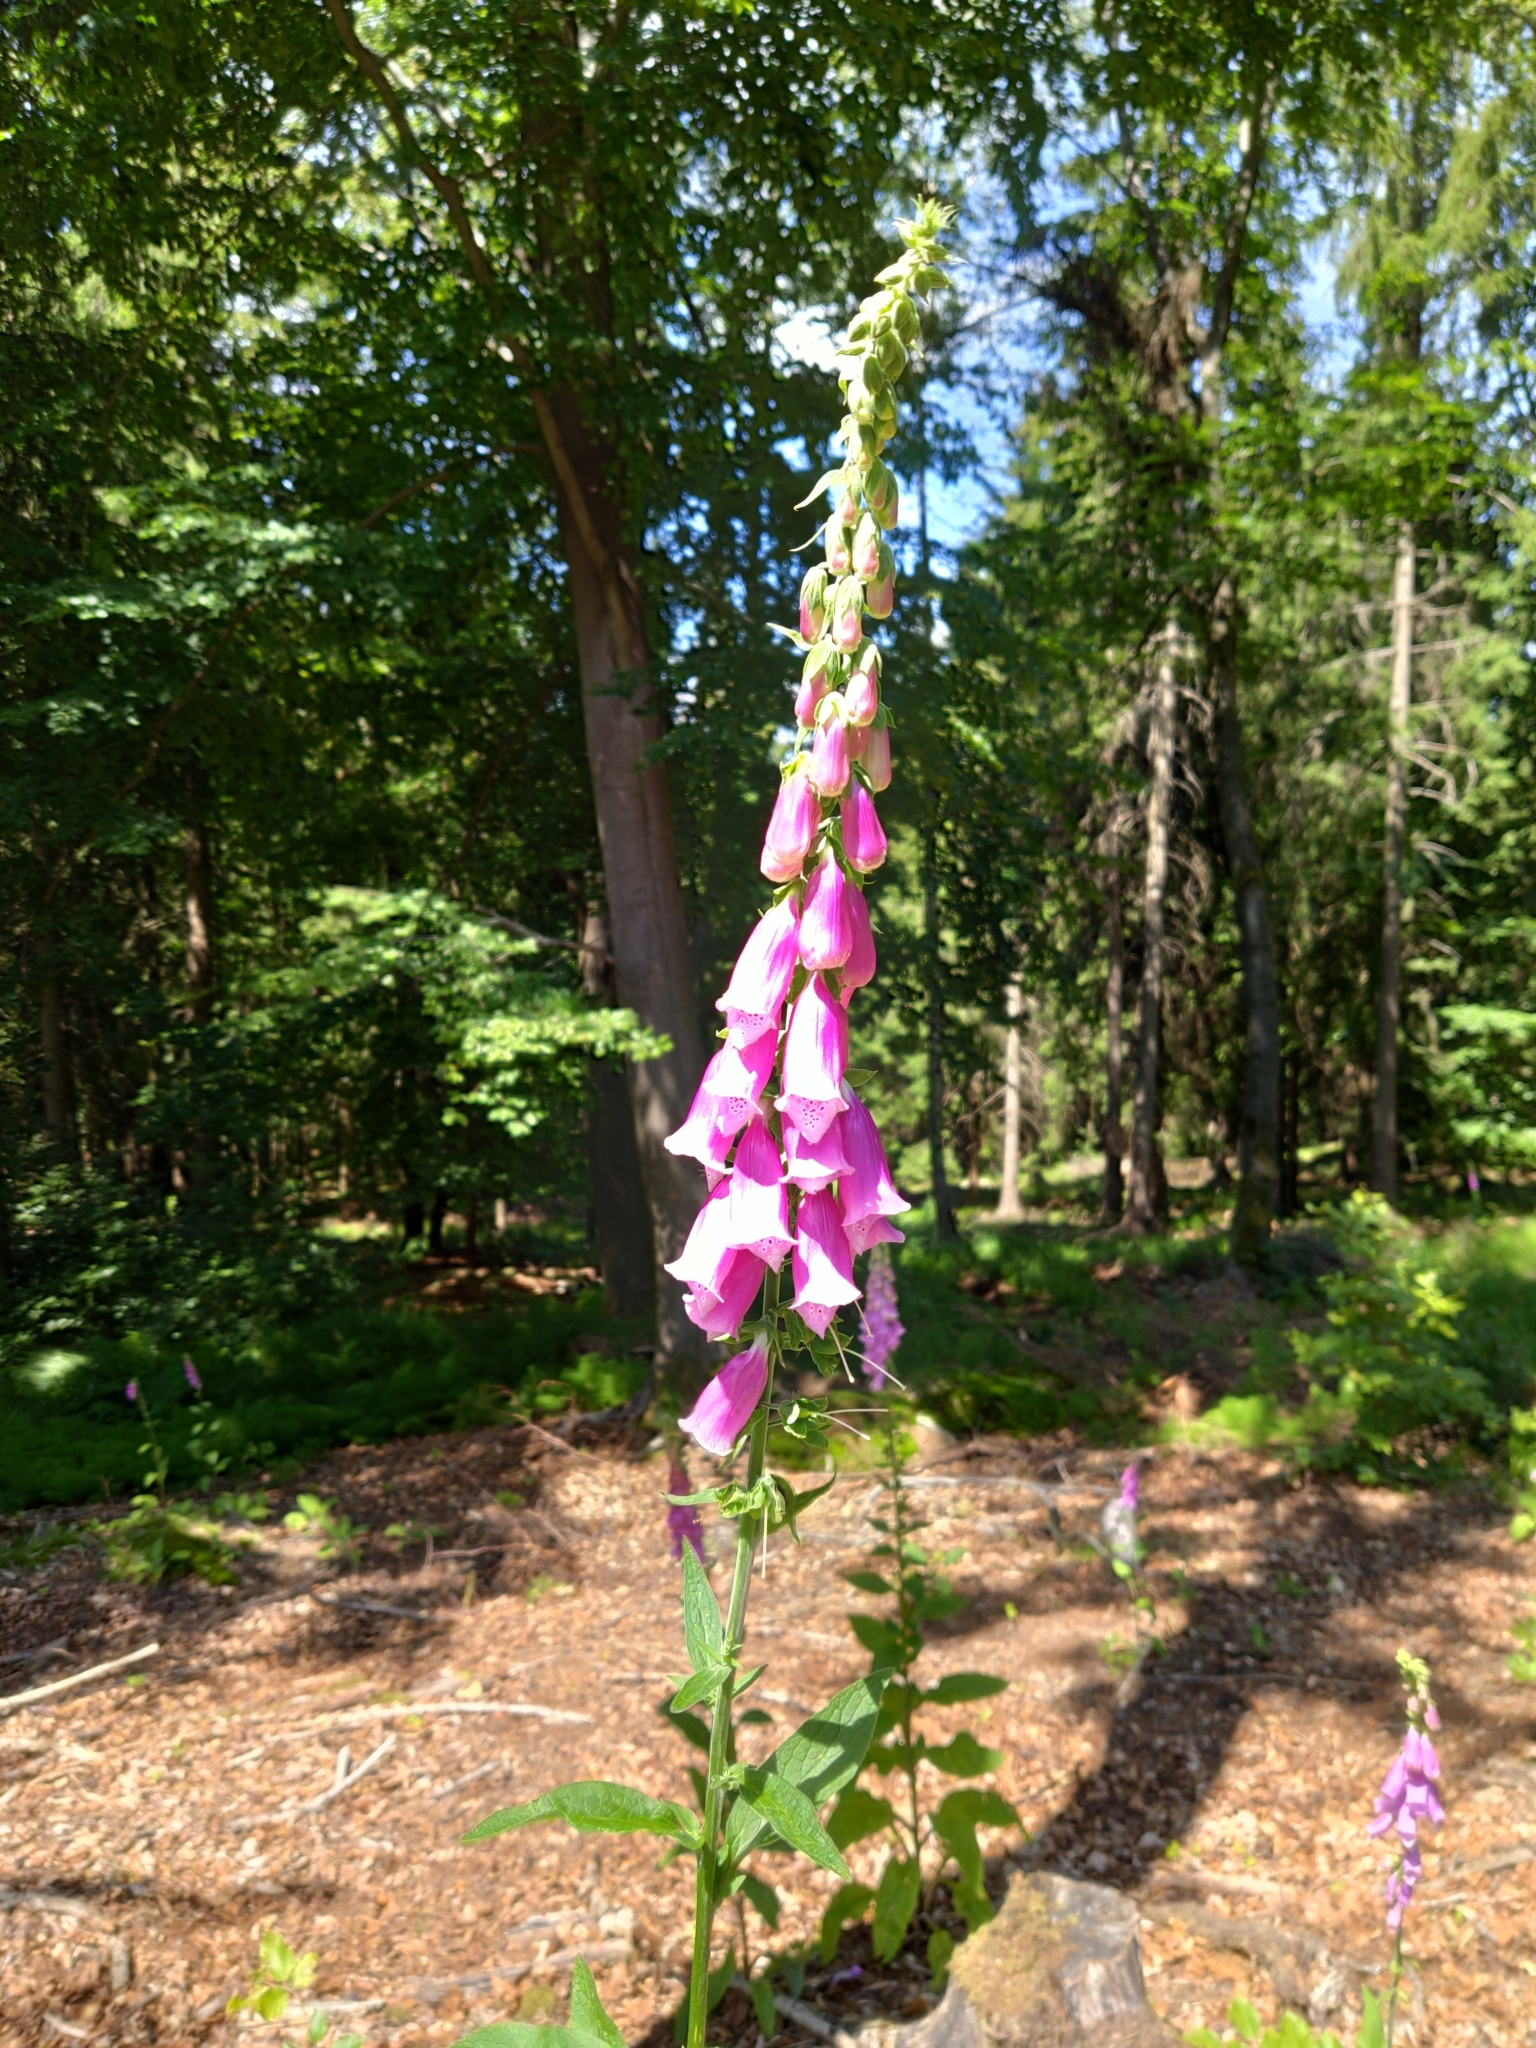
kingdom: Plantae
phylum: Tracheophyta
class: Magnoliopsida
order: Lamiales
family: Plantaginaceae
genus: Digitalis
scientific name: Digitalis purpurea
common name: Foxglove
